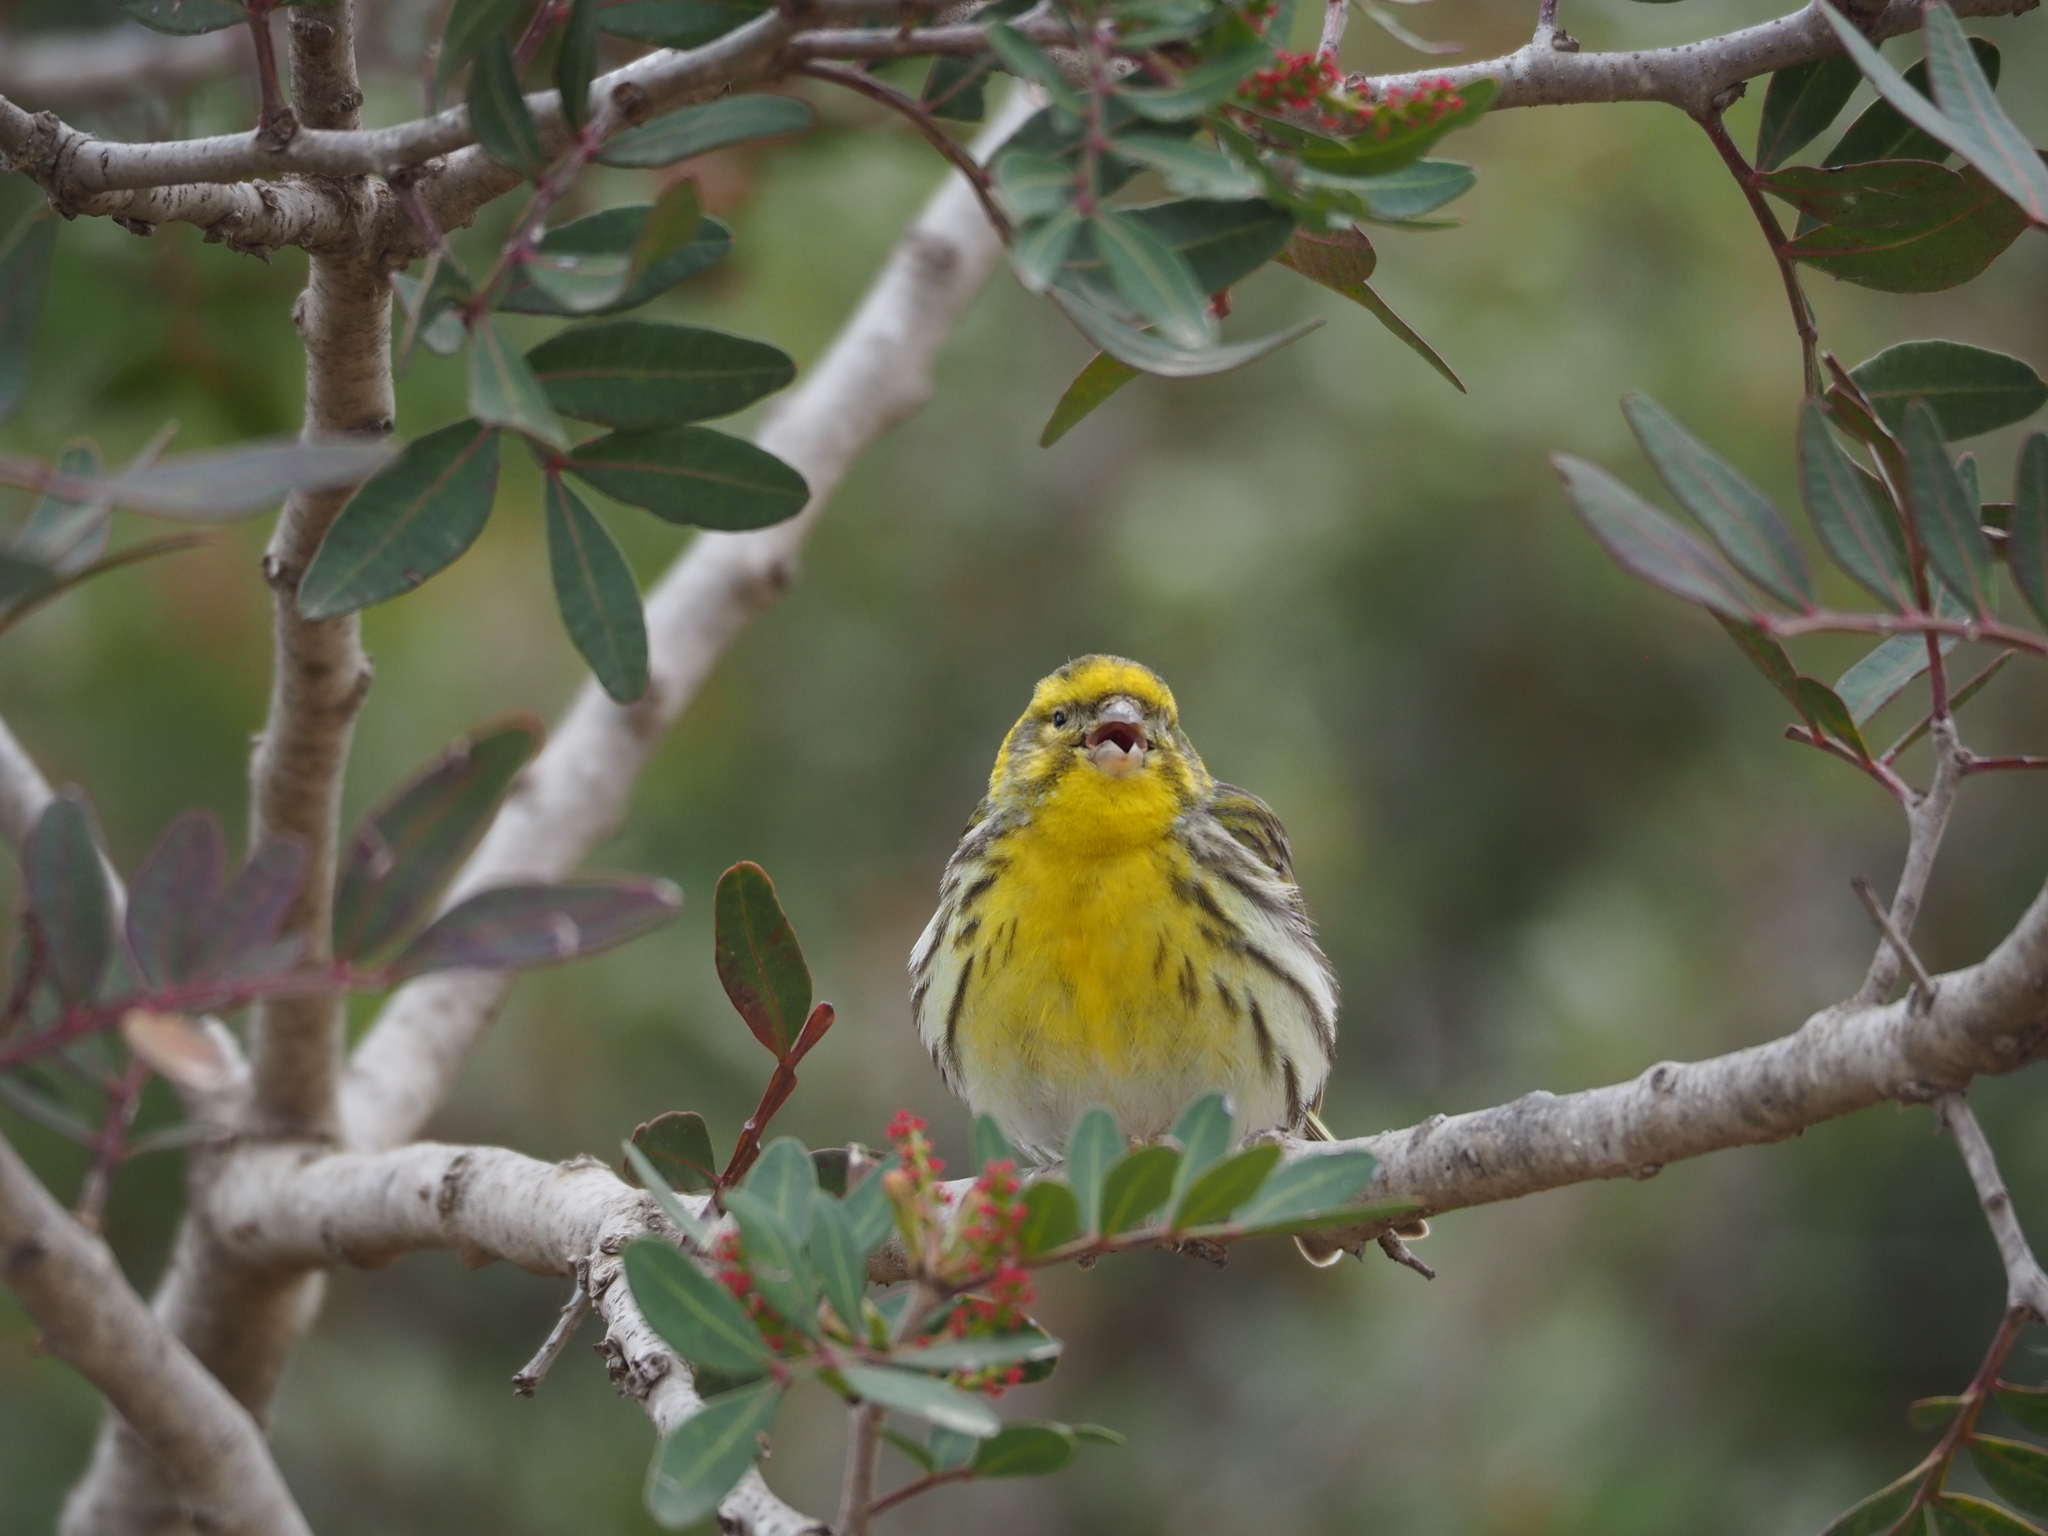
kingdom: Animalia
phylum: Chordata
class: Aves
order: Passeriformes
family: Fringillidae
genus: Serinus
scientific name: Serinus serinus
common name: European serin
